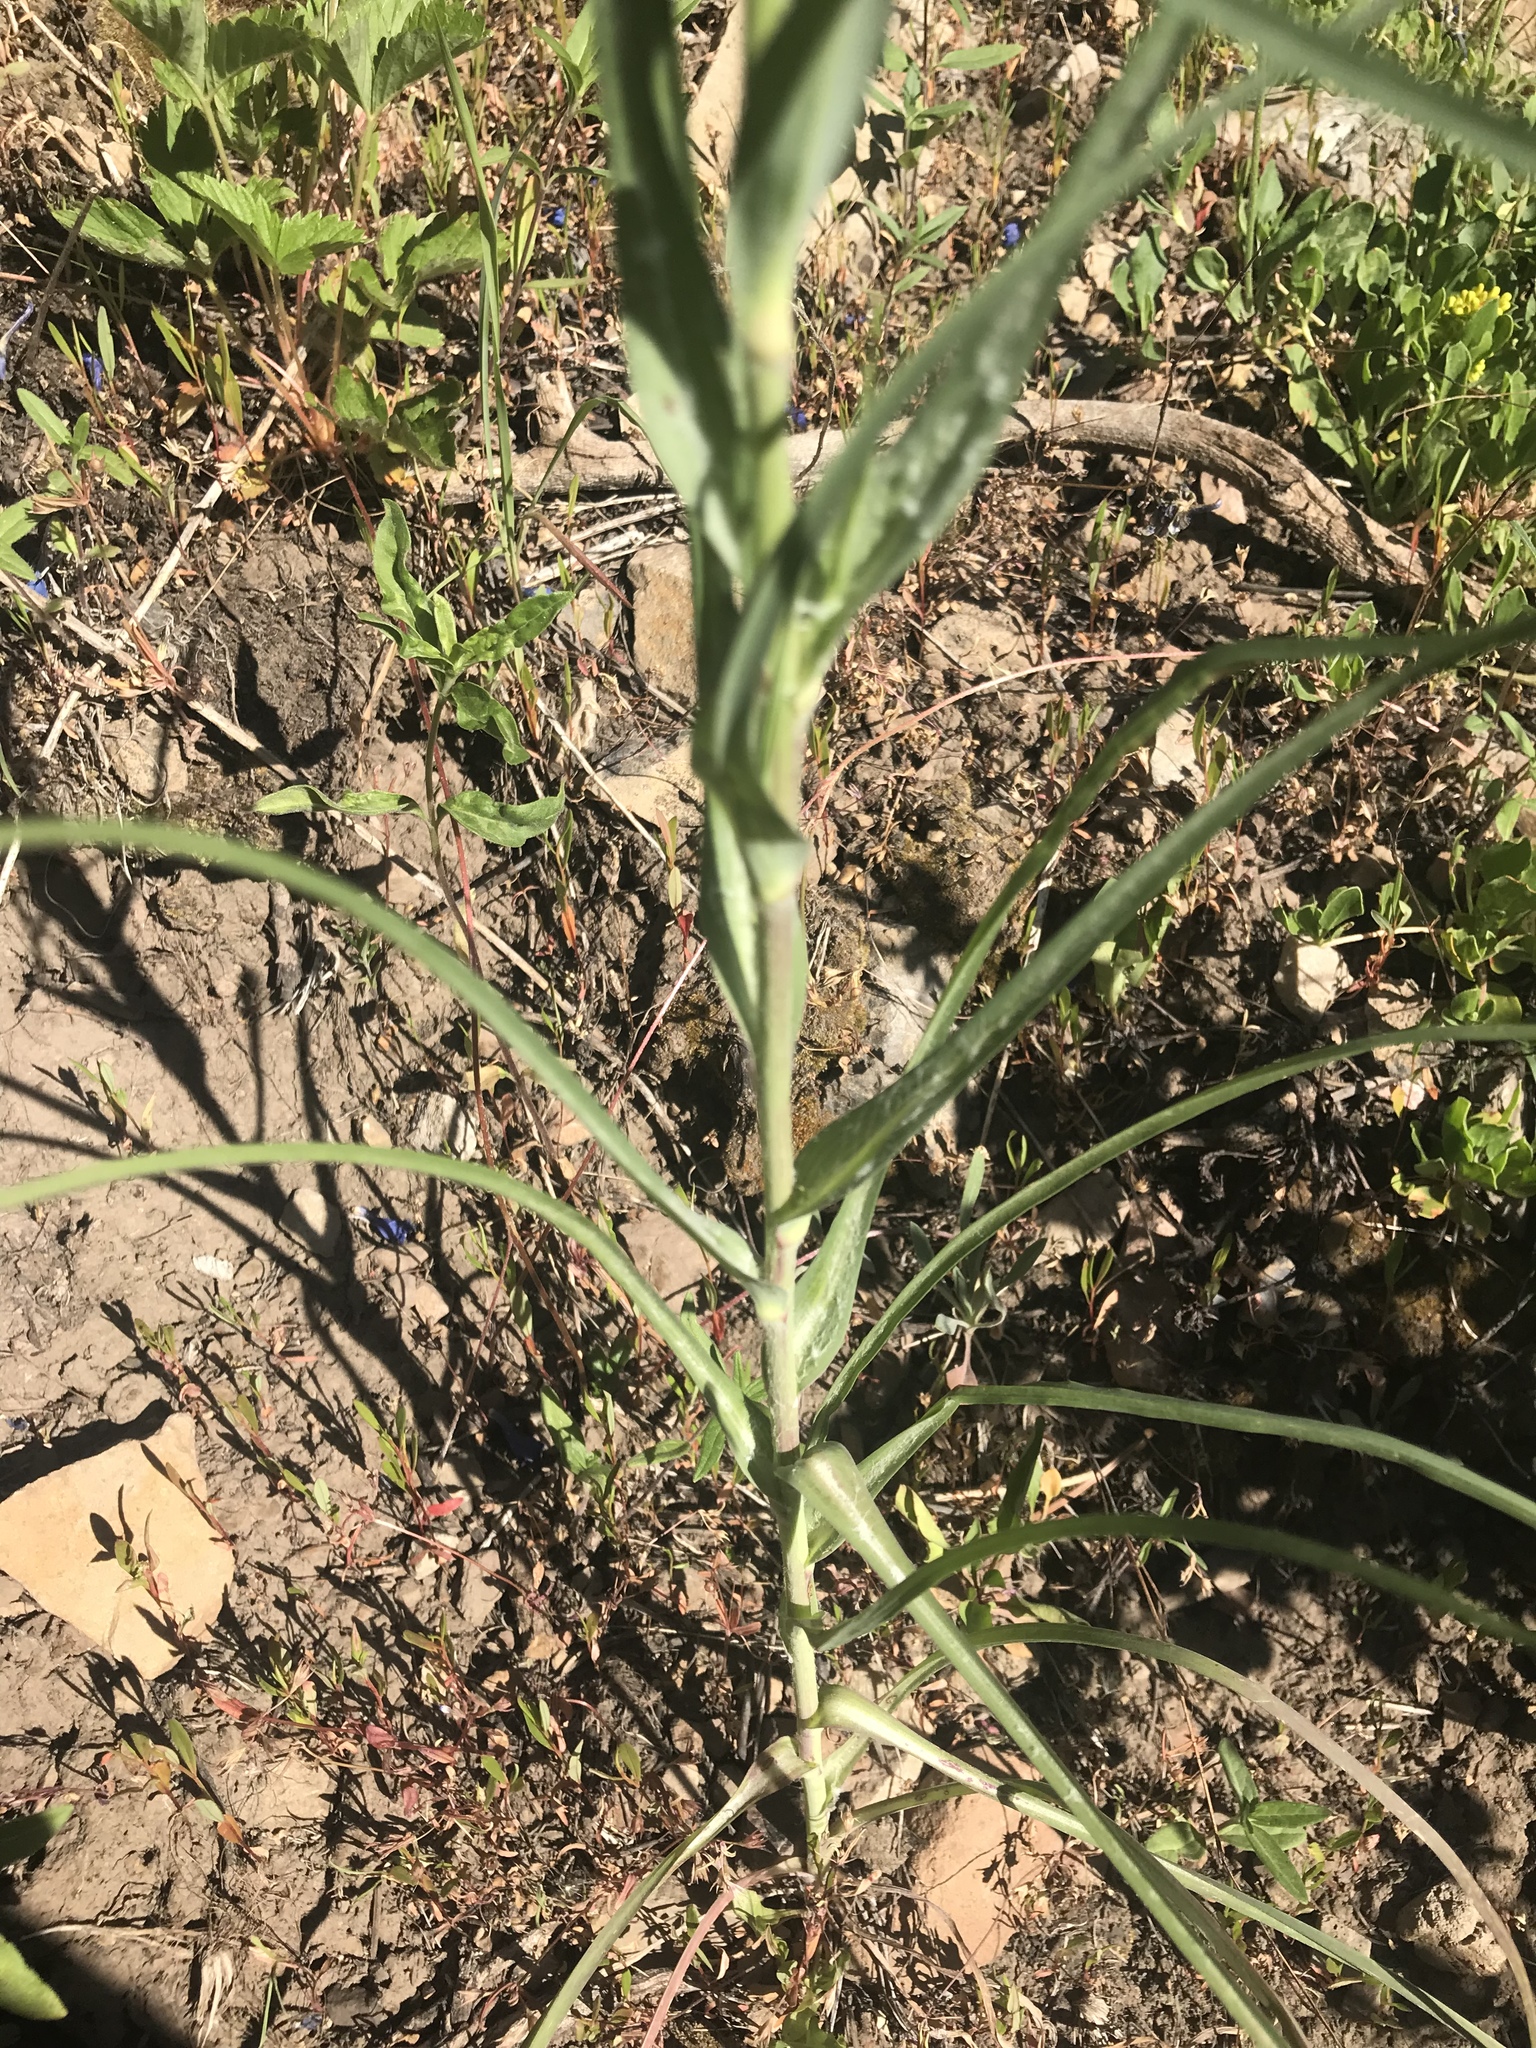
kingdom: Plantae
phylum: Tracheophyta
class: Magnoliopsida
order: Asterales
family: Asteraceae
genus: Tragopogon
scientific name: Tragopogon dubius
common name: Yellow salsify
